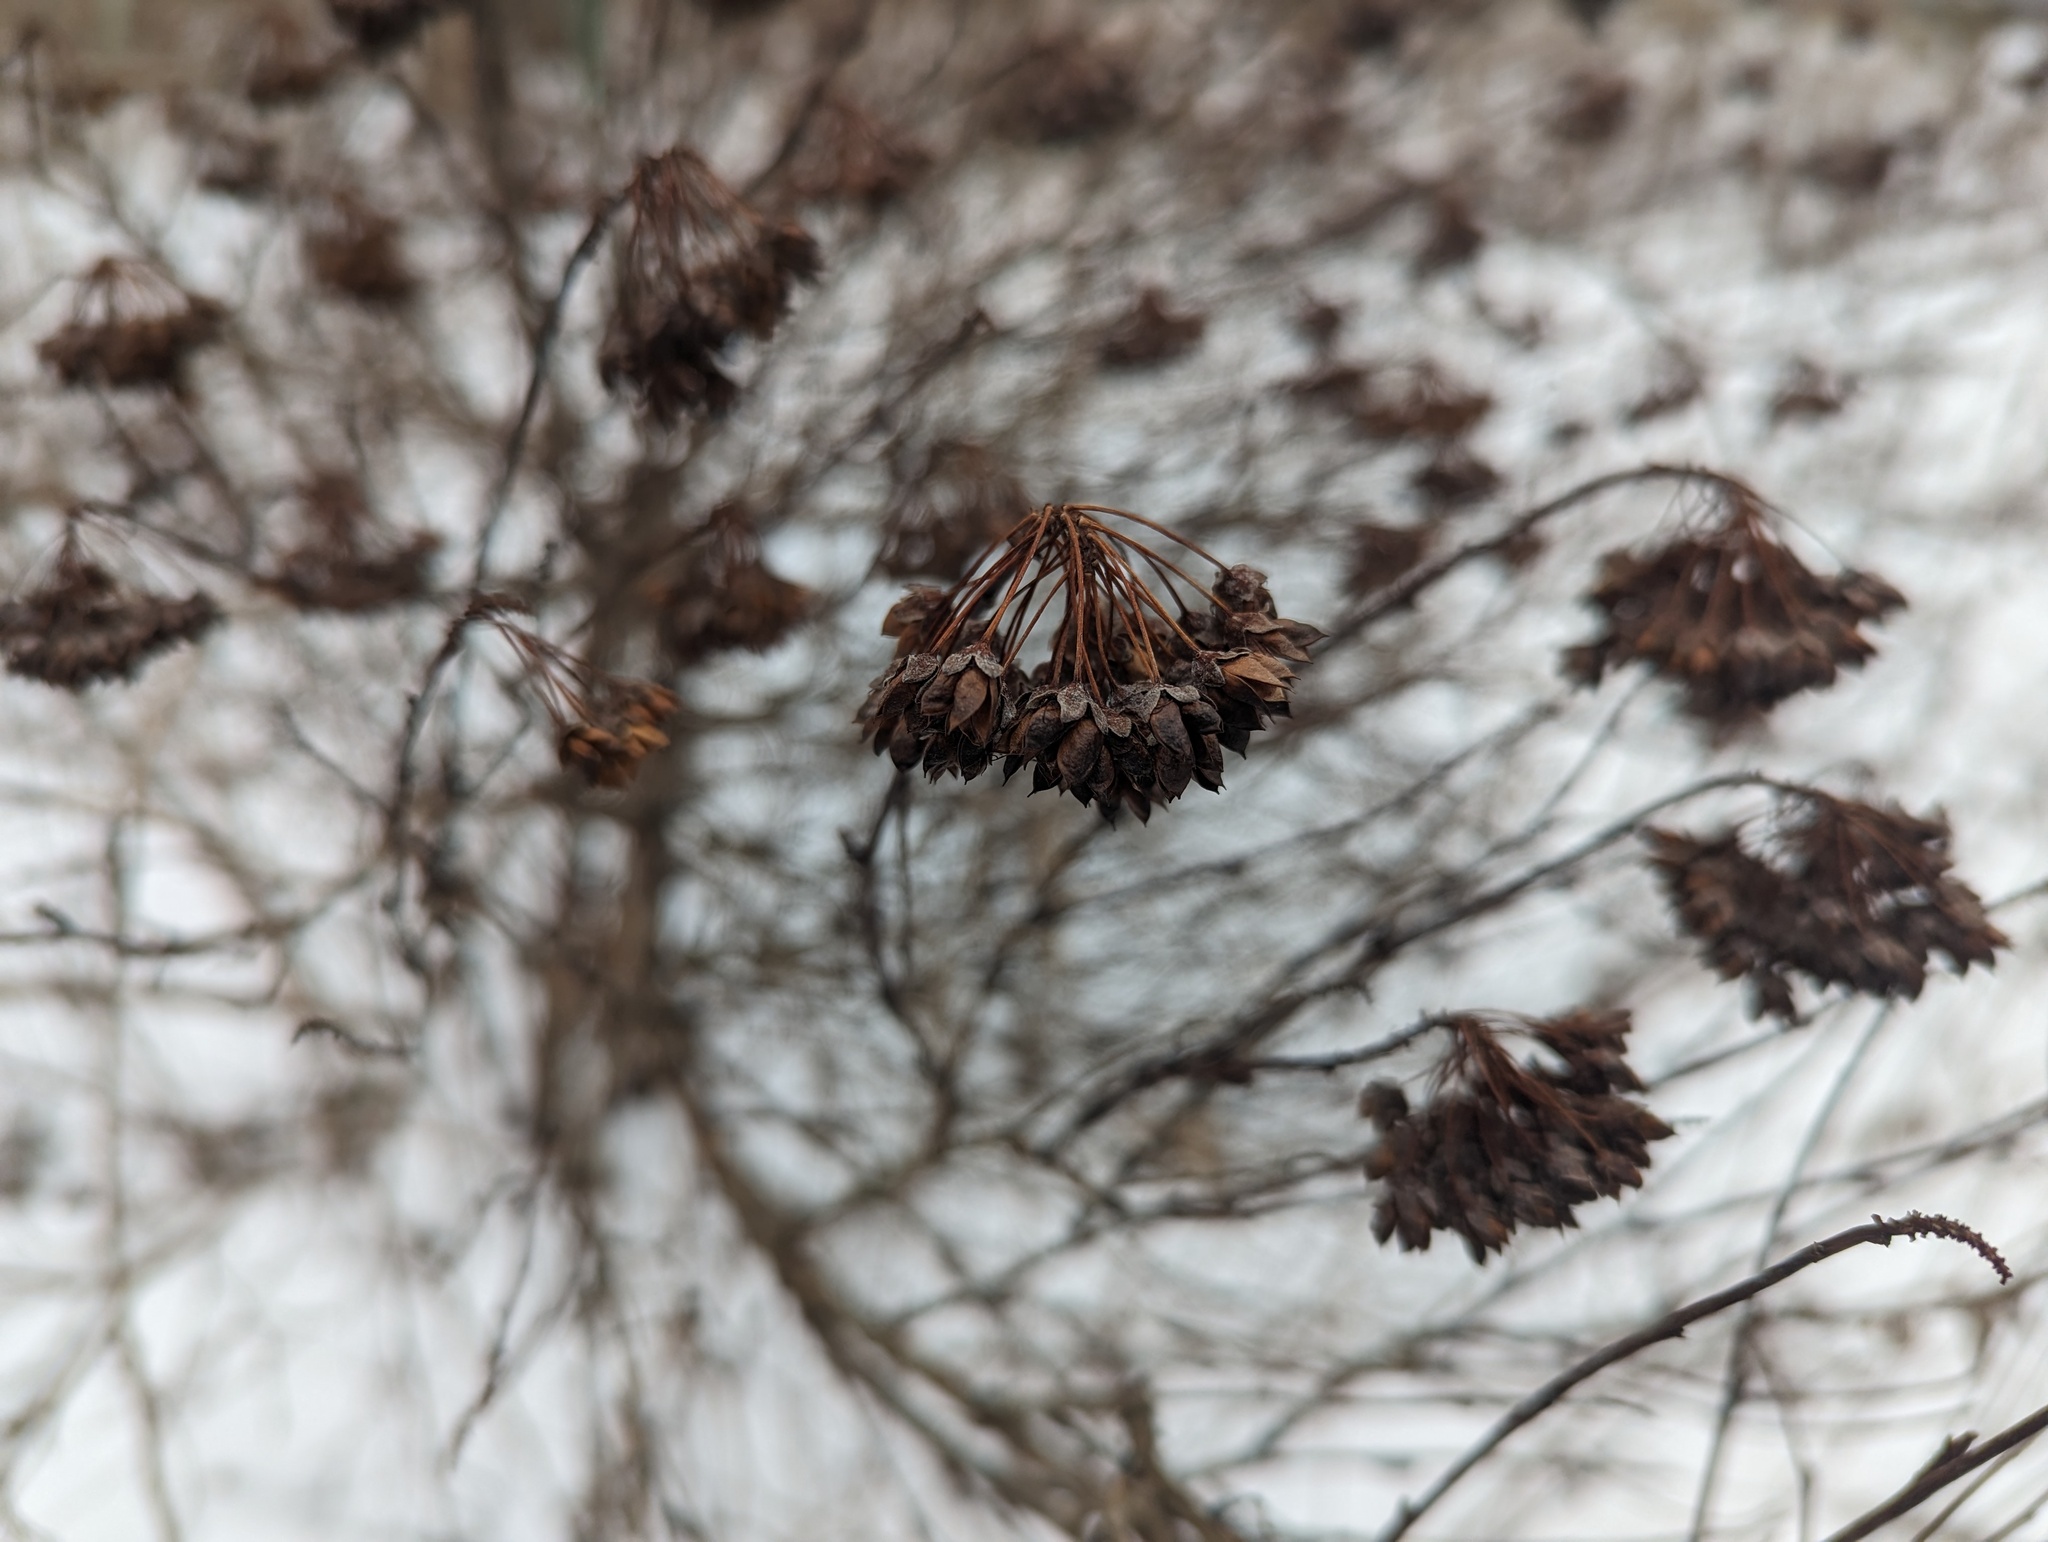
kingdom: Plantae
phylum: Tracheophyta
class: Magnoliopsida
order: Rosales
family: Rosaceae
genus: Physocarpus
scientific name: Physocarpus opulifolius
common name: Ninebark
